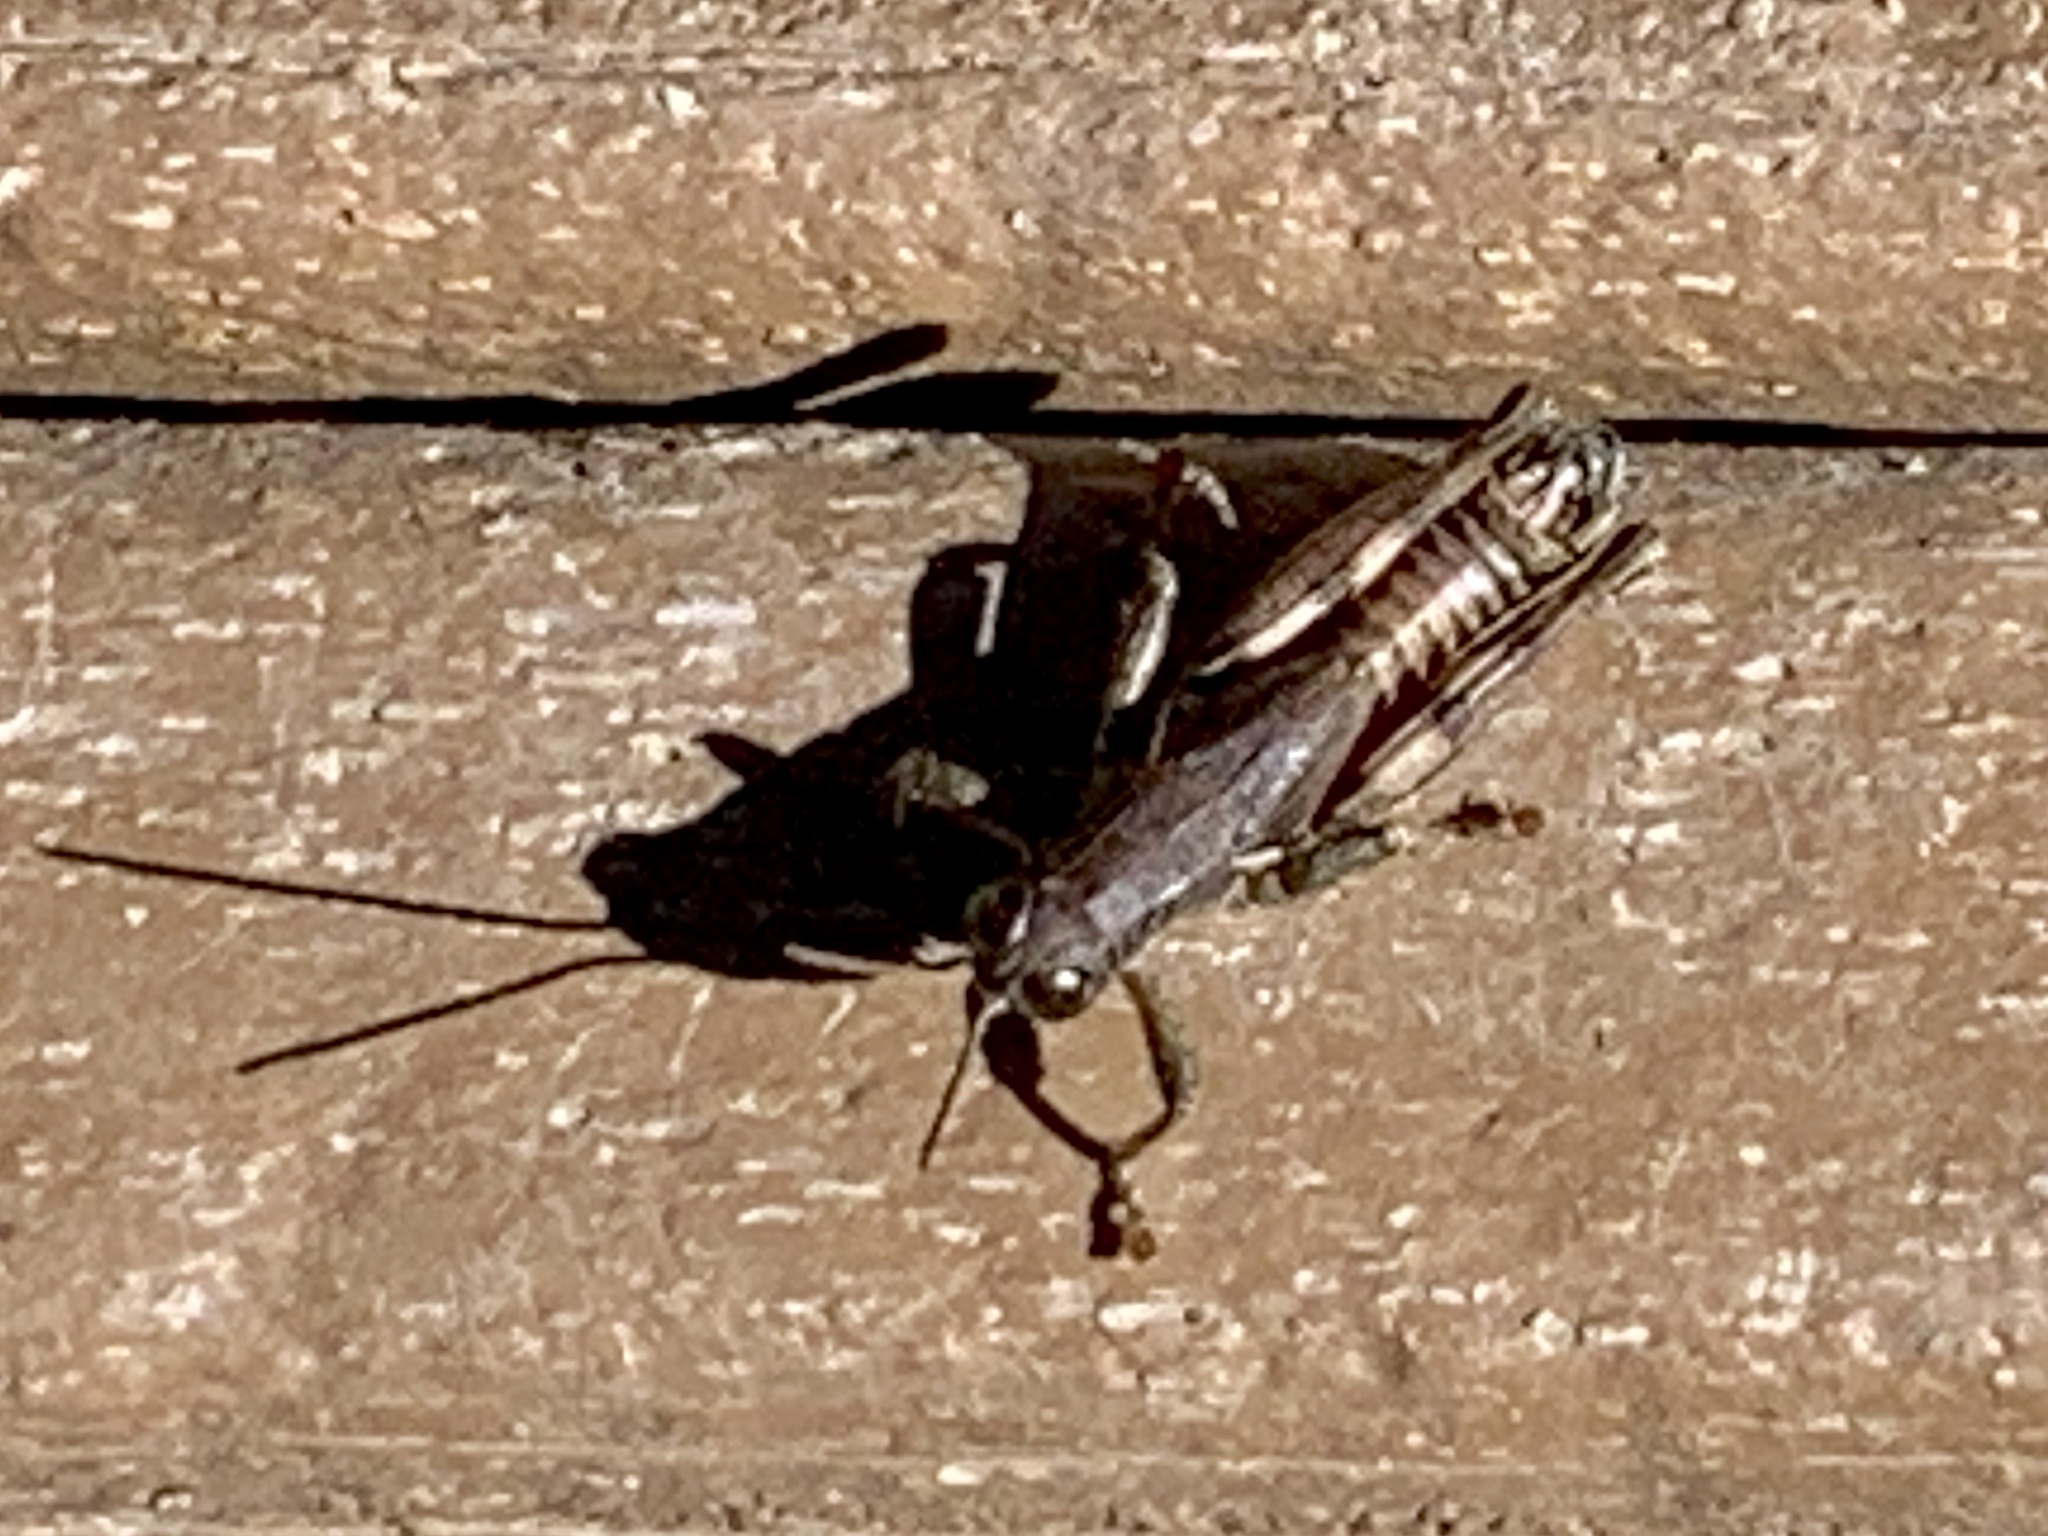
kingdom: Animalia
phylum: Arthropoda
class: Insecta
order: Orthoptera
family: Acrididae
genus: Melanoplus
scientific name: Melanoplus adapi
